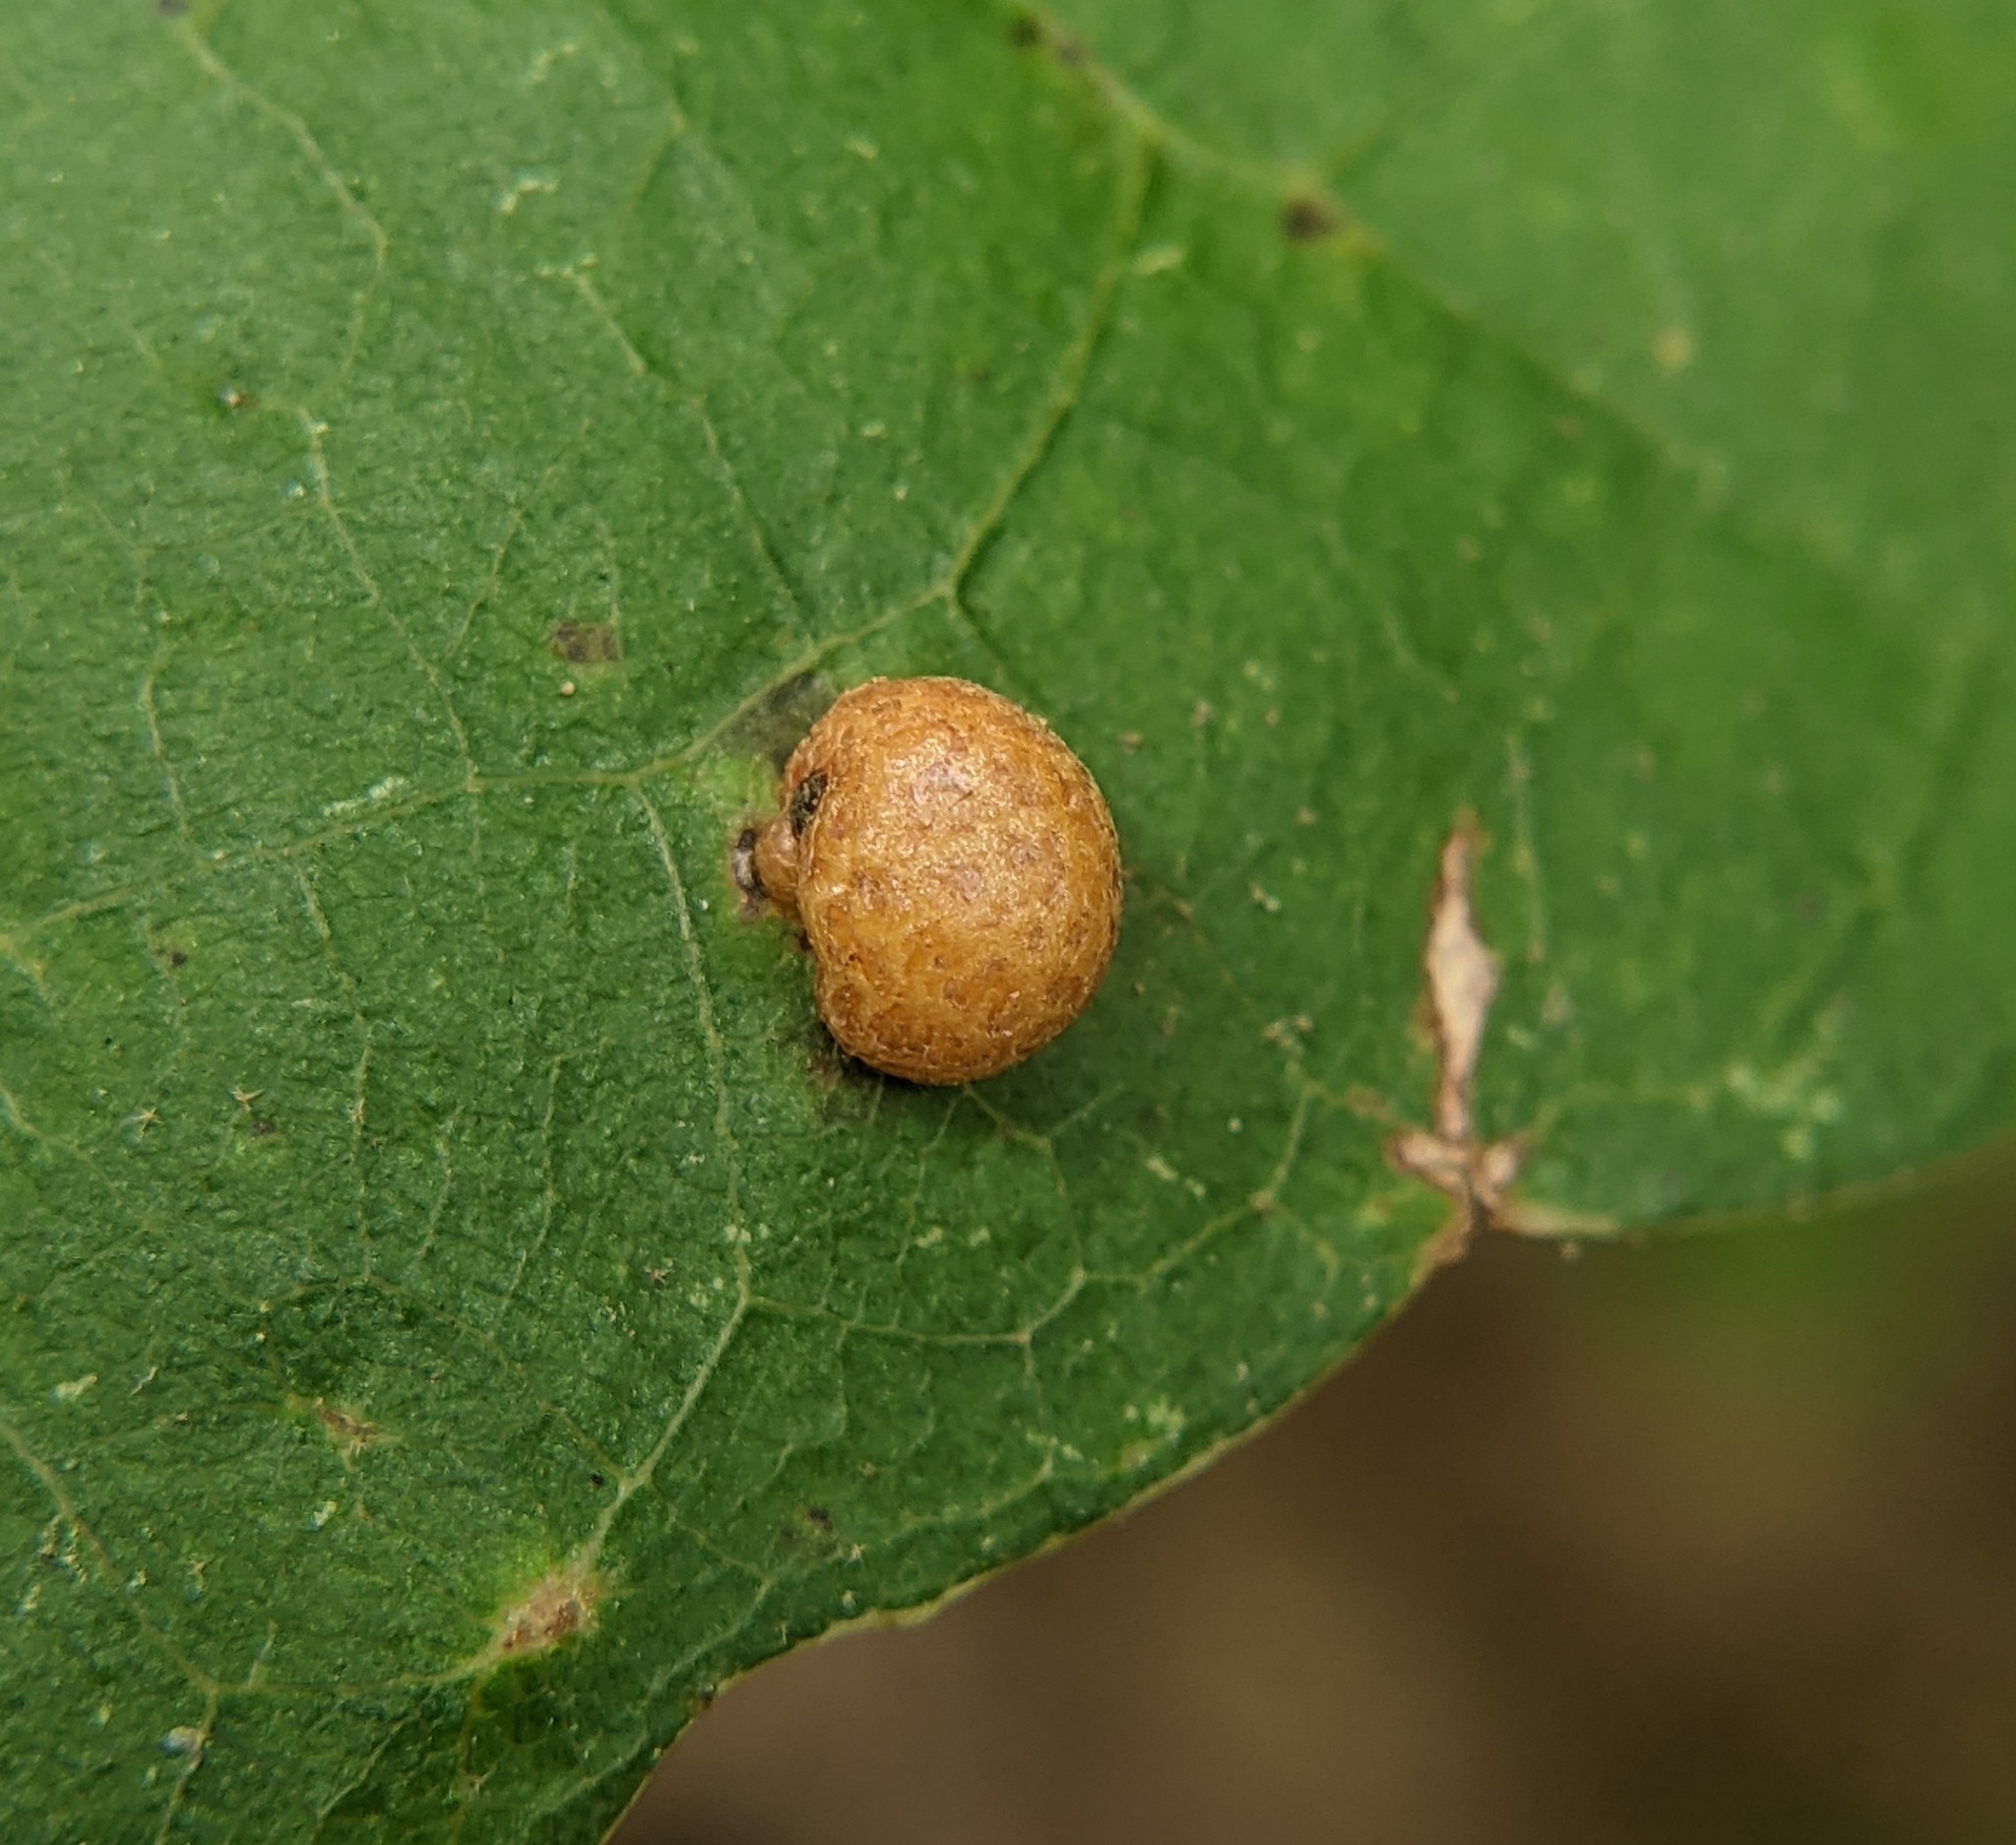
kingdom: Animalia
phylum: Arthropoda
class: Insecta
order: Diptera
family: Cecidomyiidae
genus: Polystepha
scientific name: Polystepha pilulae
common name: Oak leaf gall midge
